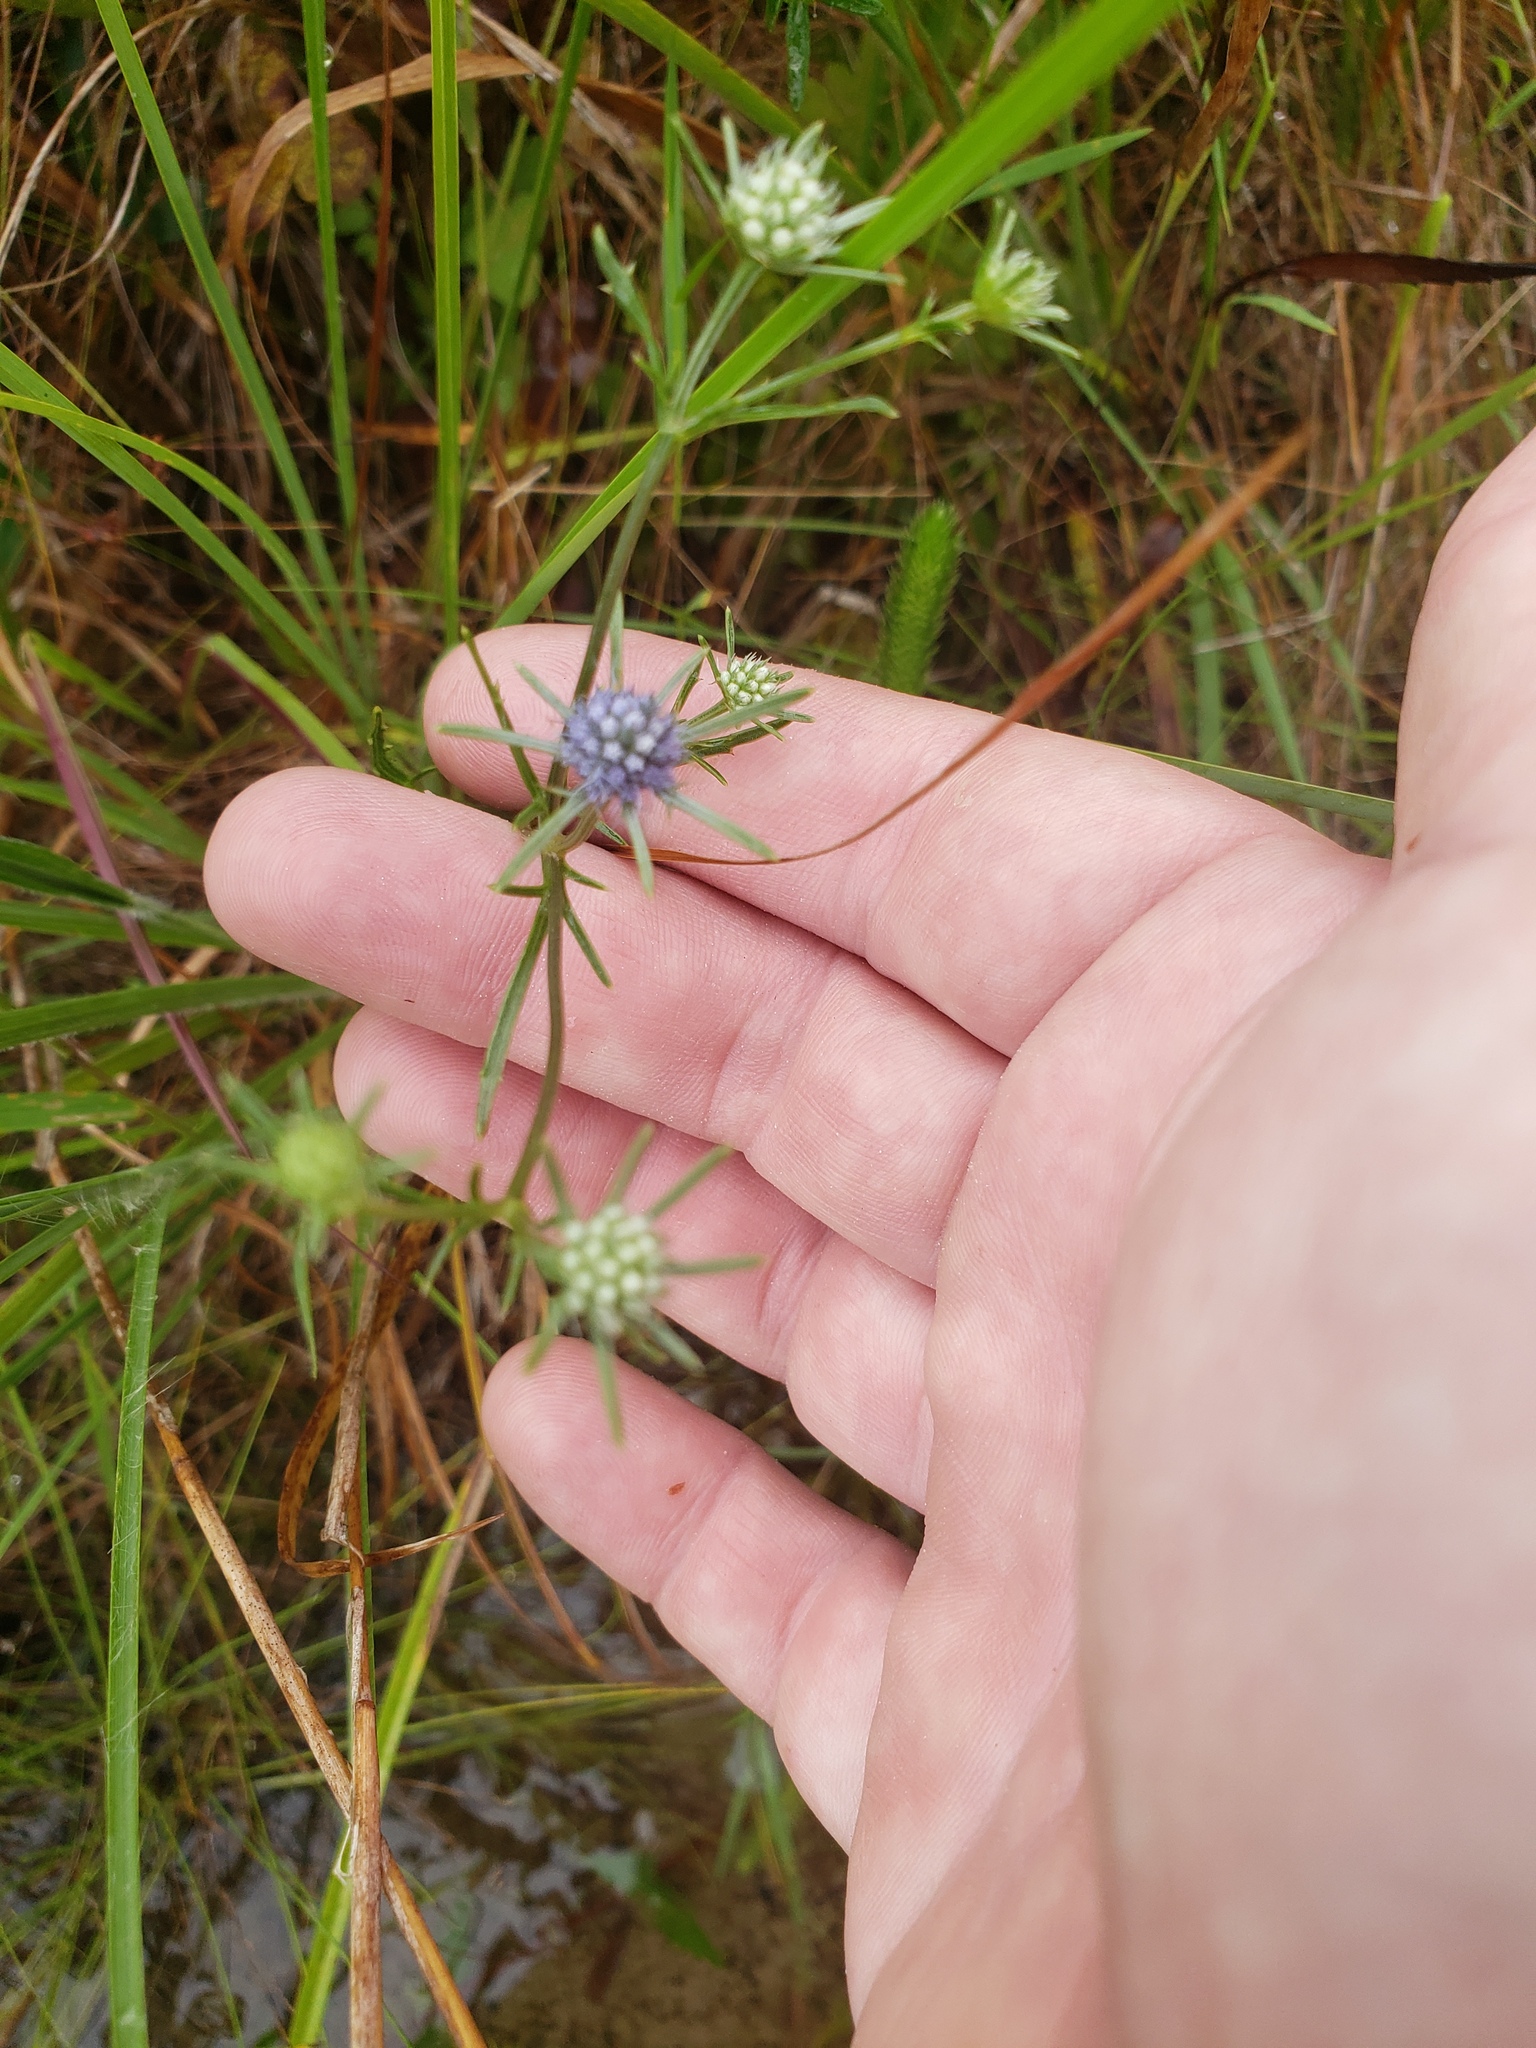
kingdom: Plantae
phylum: Tracheophyta
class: Magnoliopsida
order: Apiales
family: Apiaceae
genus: Eryngium
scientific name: Eryngium integrifolium
